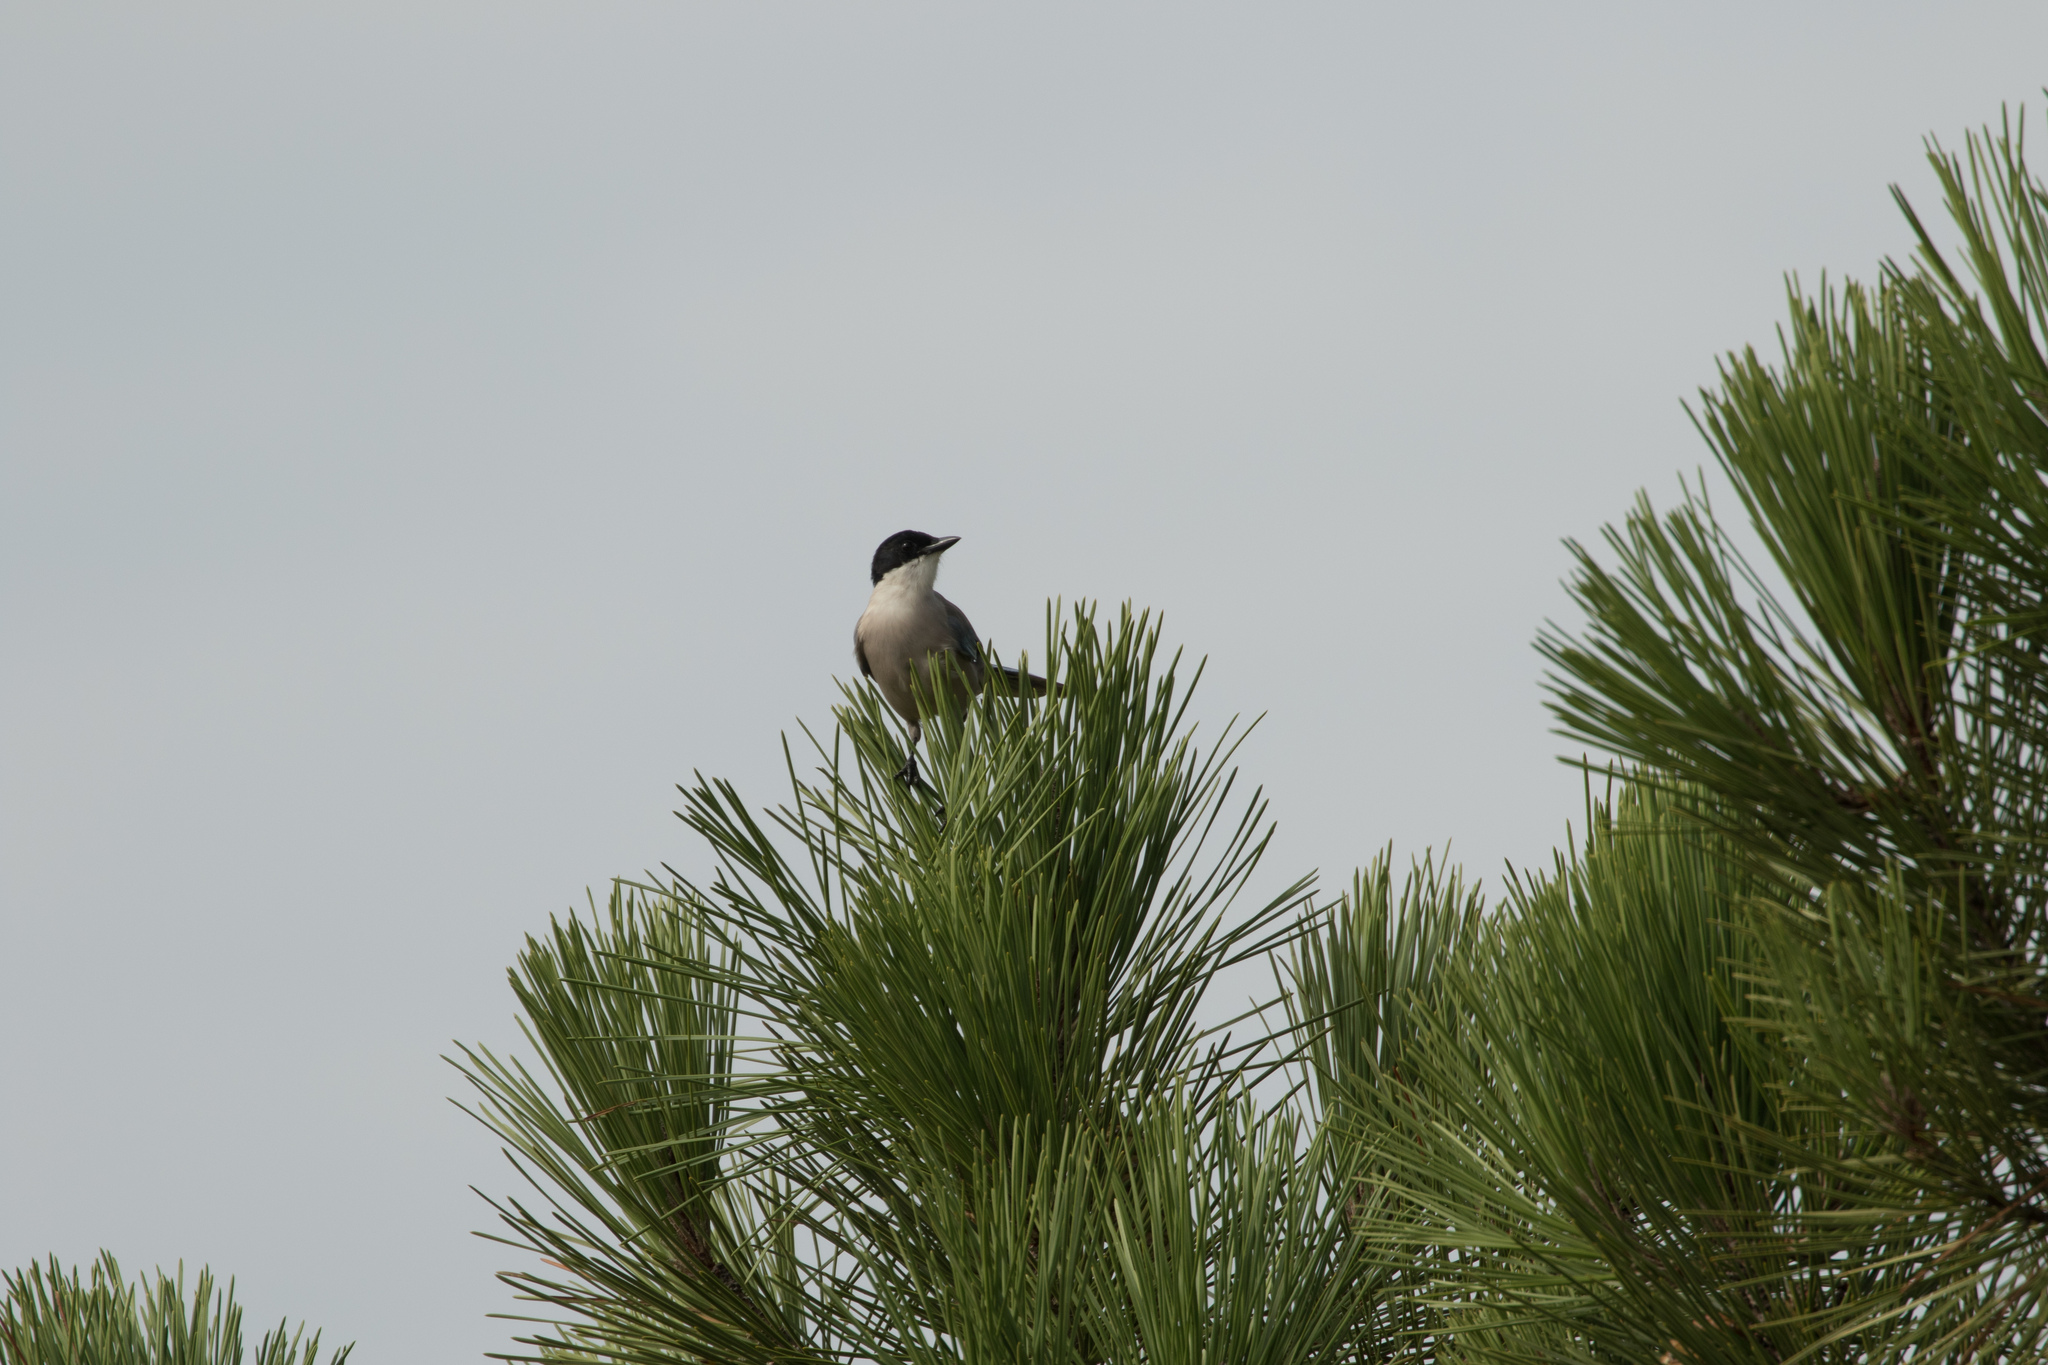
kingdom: Animalia
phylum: Chordata
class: Aves
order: Passeriformes
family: Corvidae
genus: Cyanopica
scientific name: Cyanopica cooki
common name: Iberian magpie
